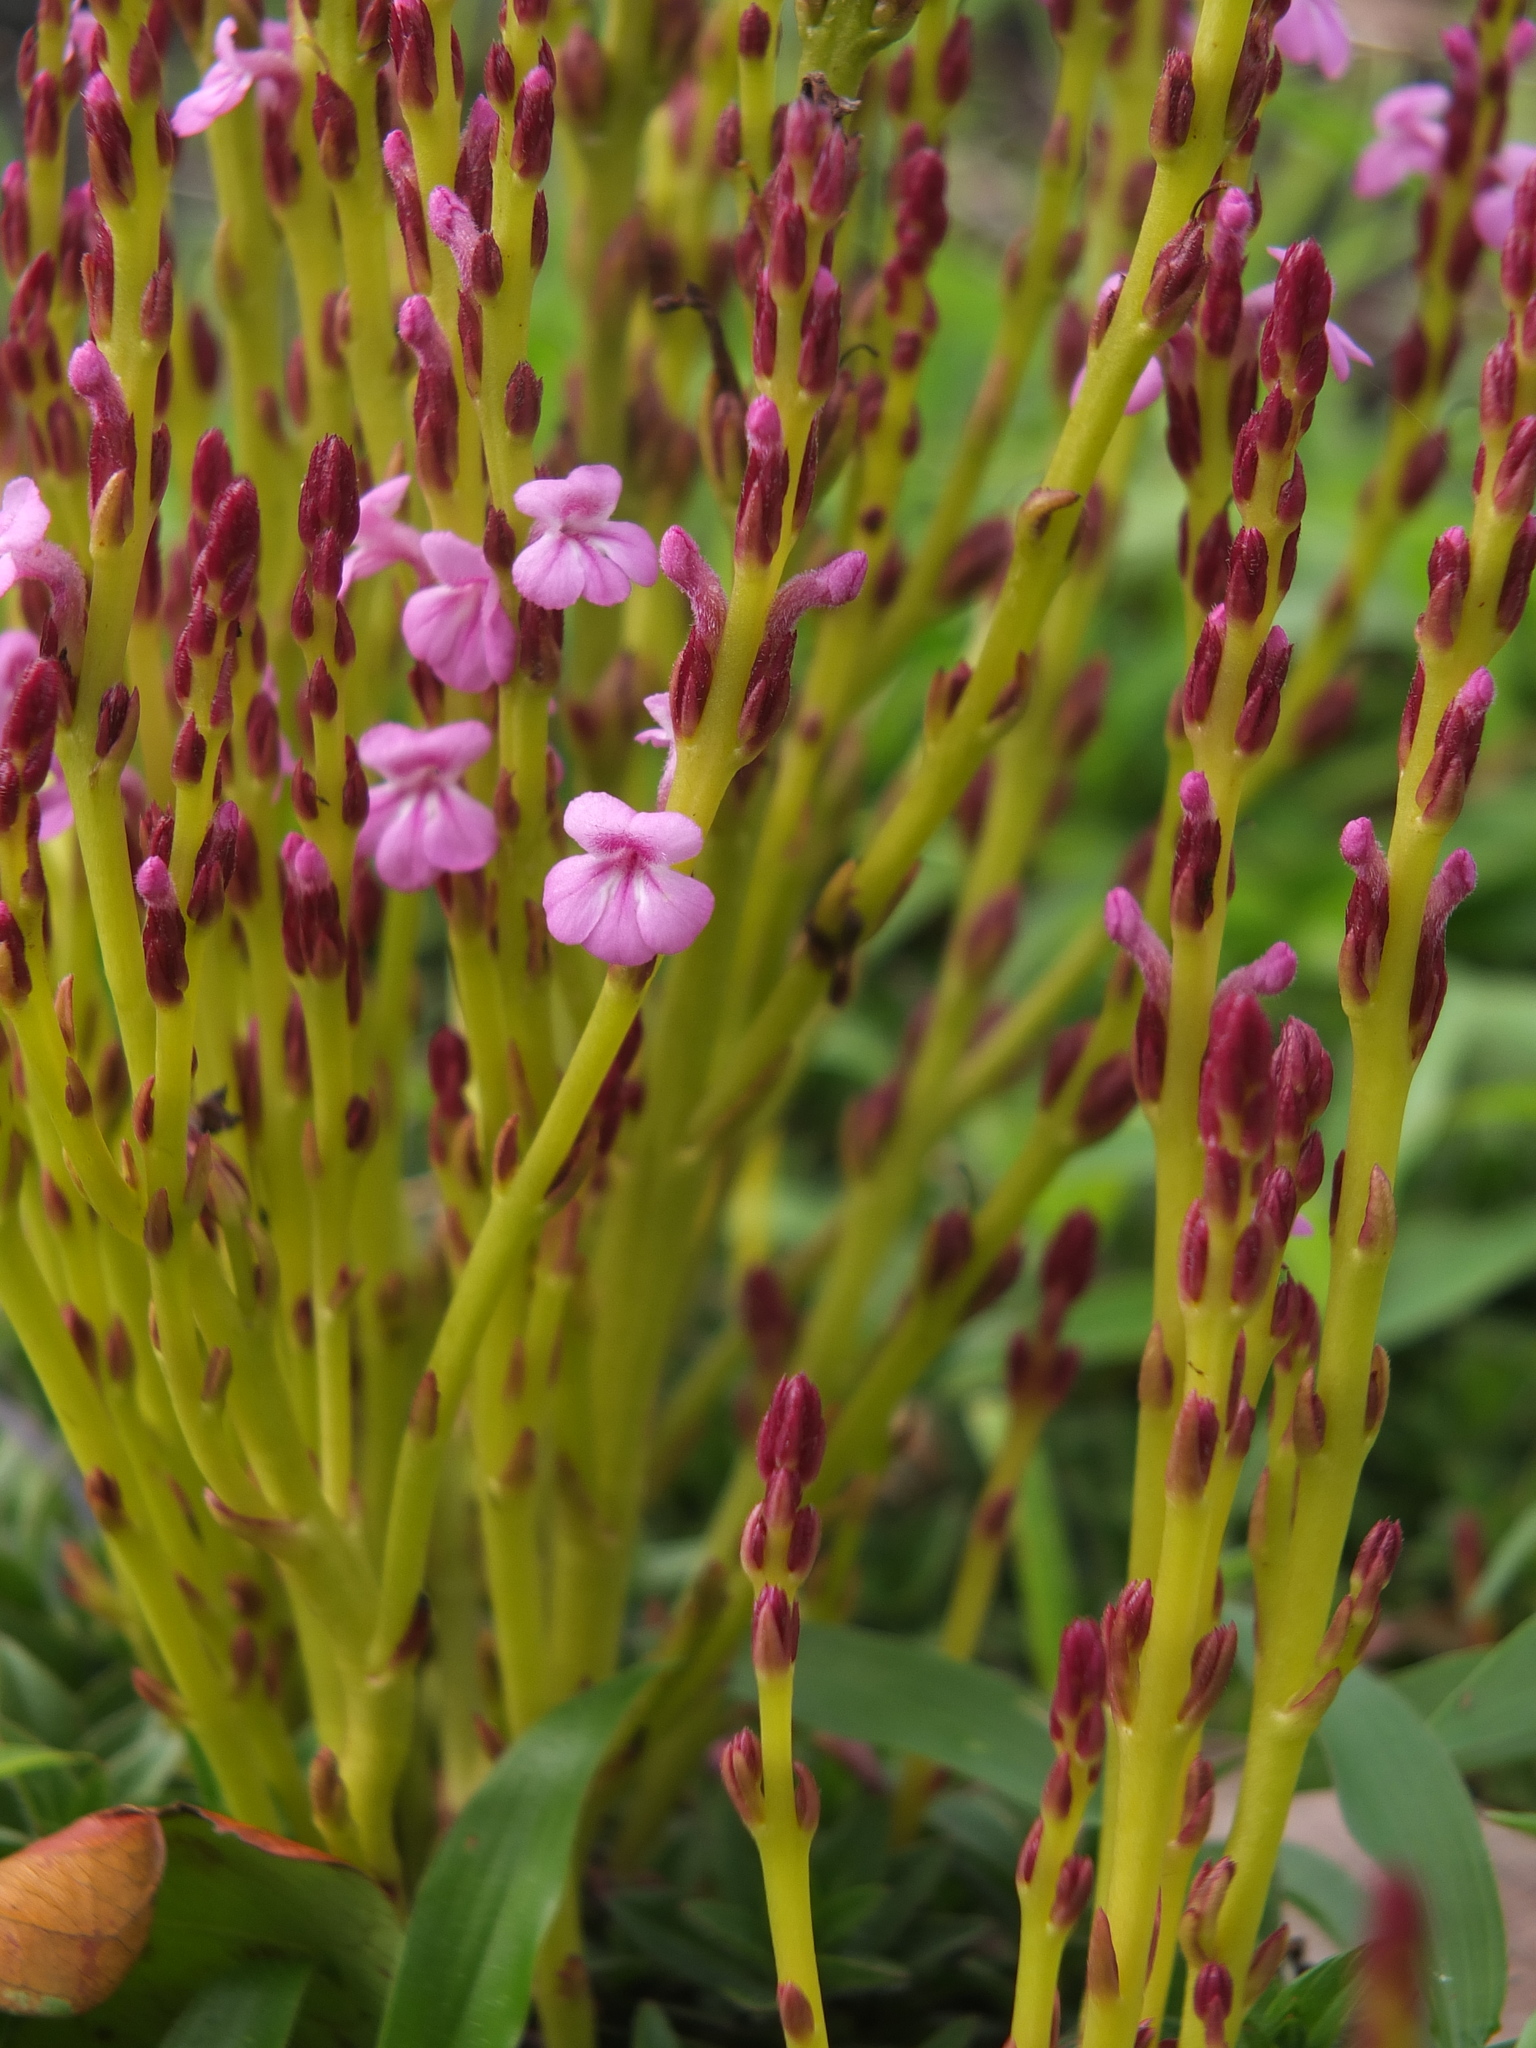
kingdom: Plantae
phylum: Tracheophyta
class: Magnoliopsida
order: Lamiales
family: Orobanchaceae
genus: Striga
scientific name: Striga gesnerioides
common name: Cowpea witchweed
